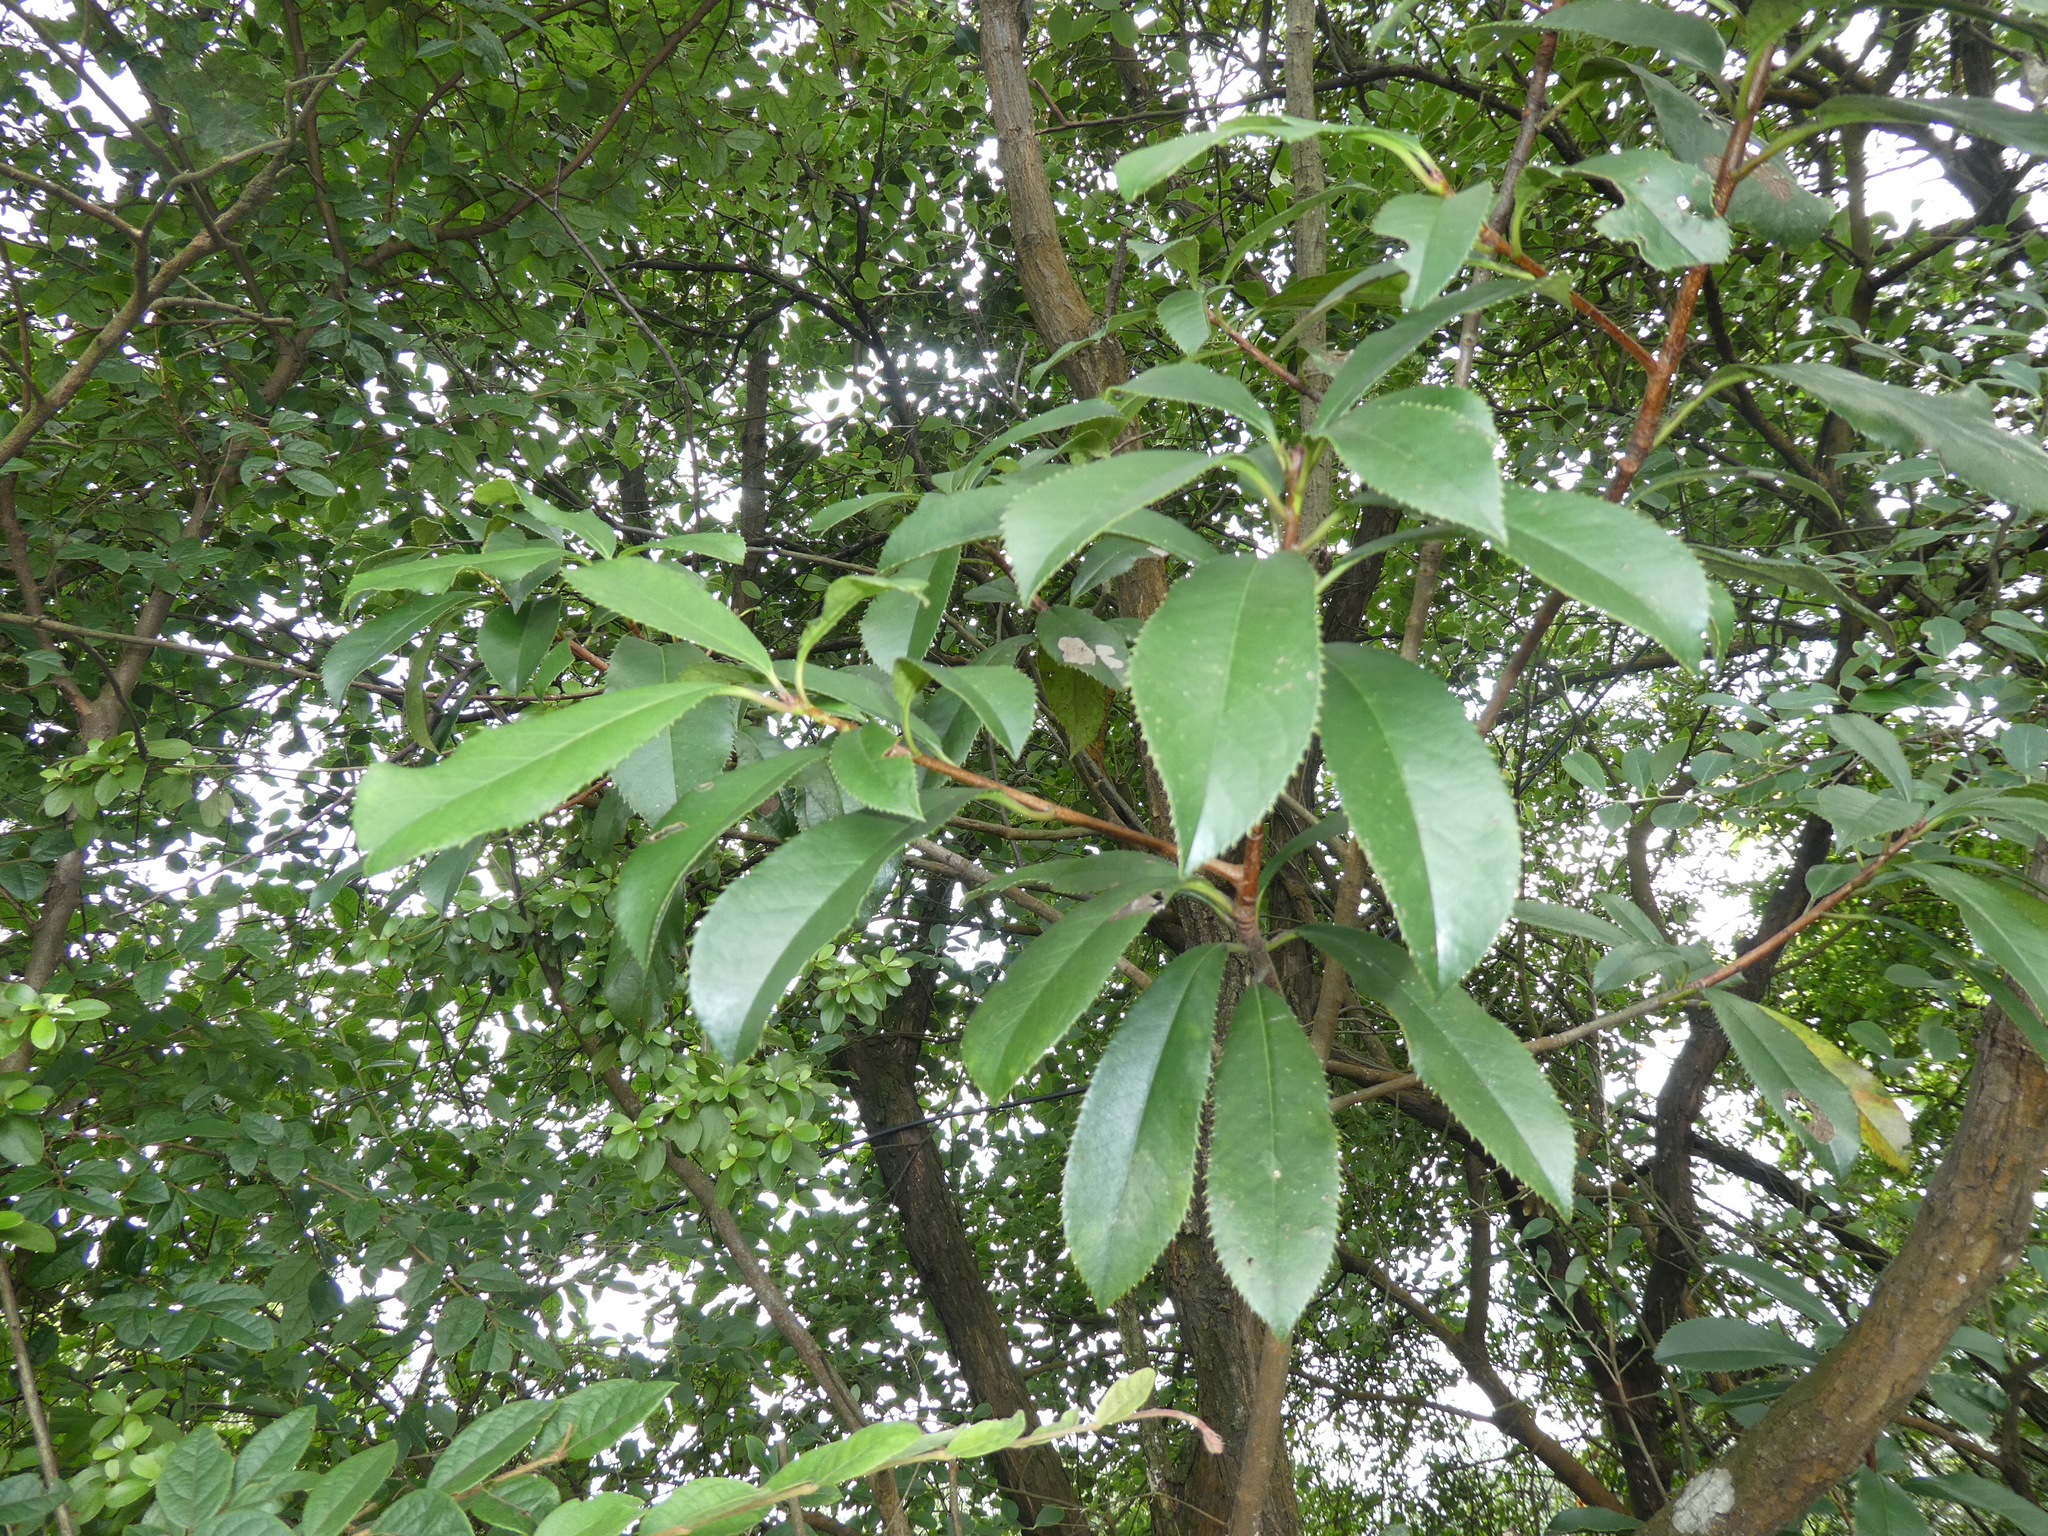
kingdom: Plantae
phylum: Tracheophyta
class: Magnoliopsida
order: Rosales
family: Rosaceae
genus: Photinia
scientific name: Photinia serratifolia
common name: Taiwanese photinia
